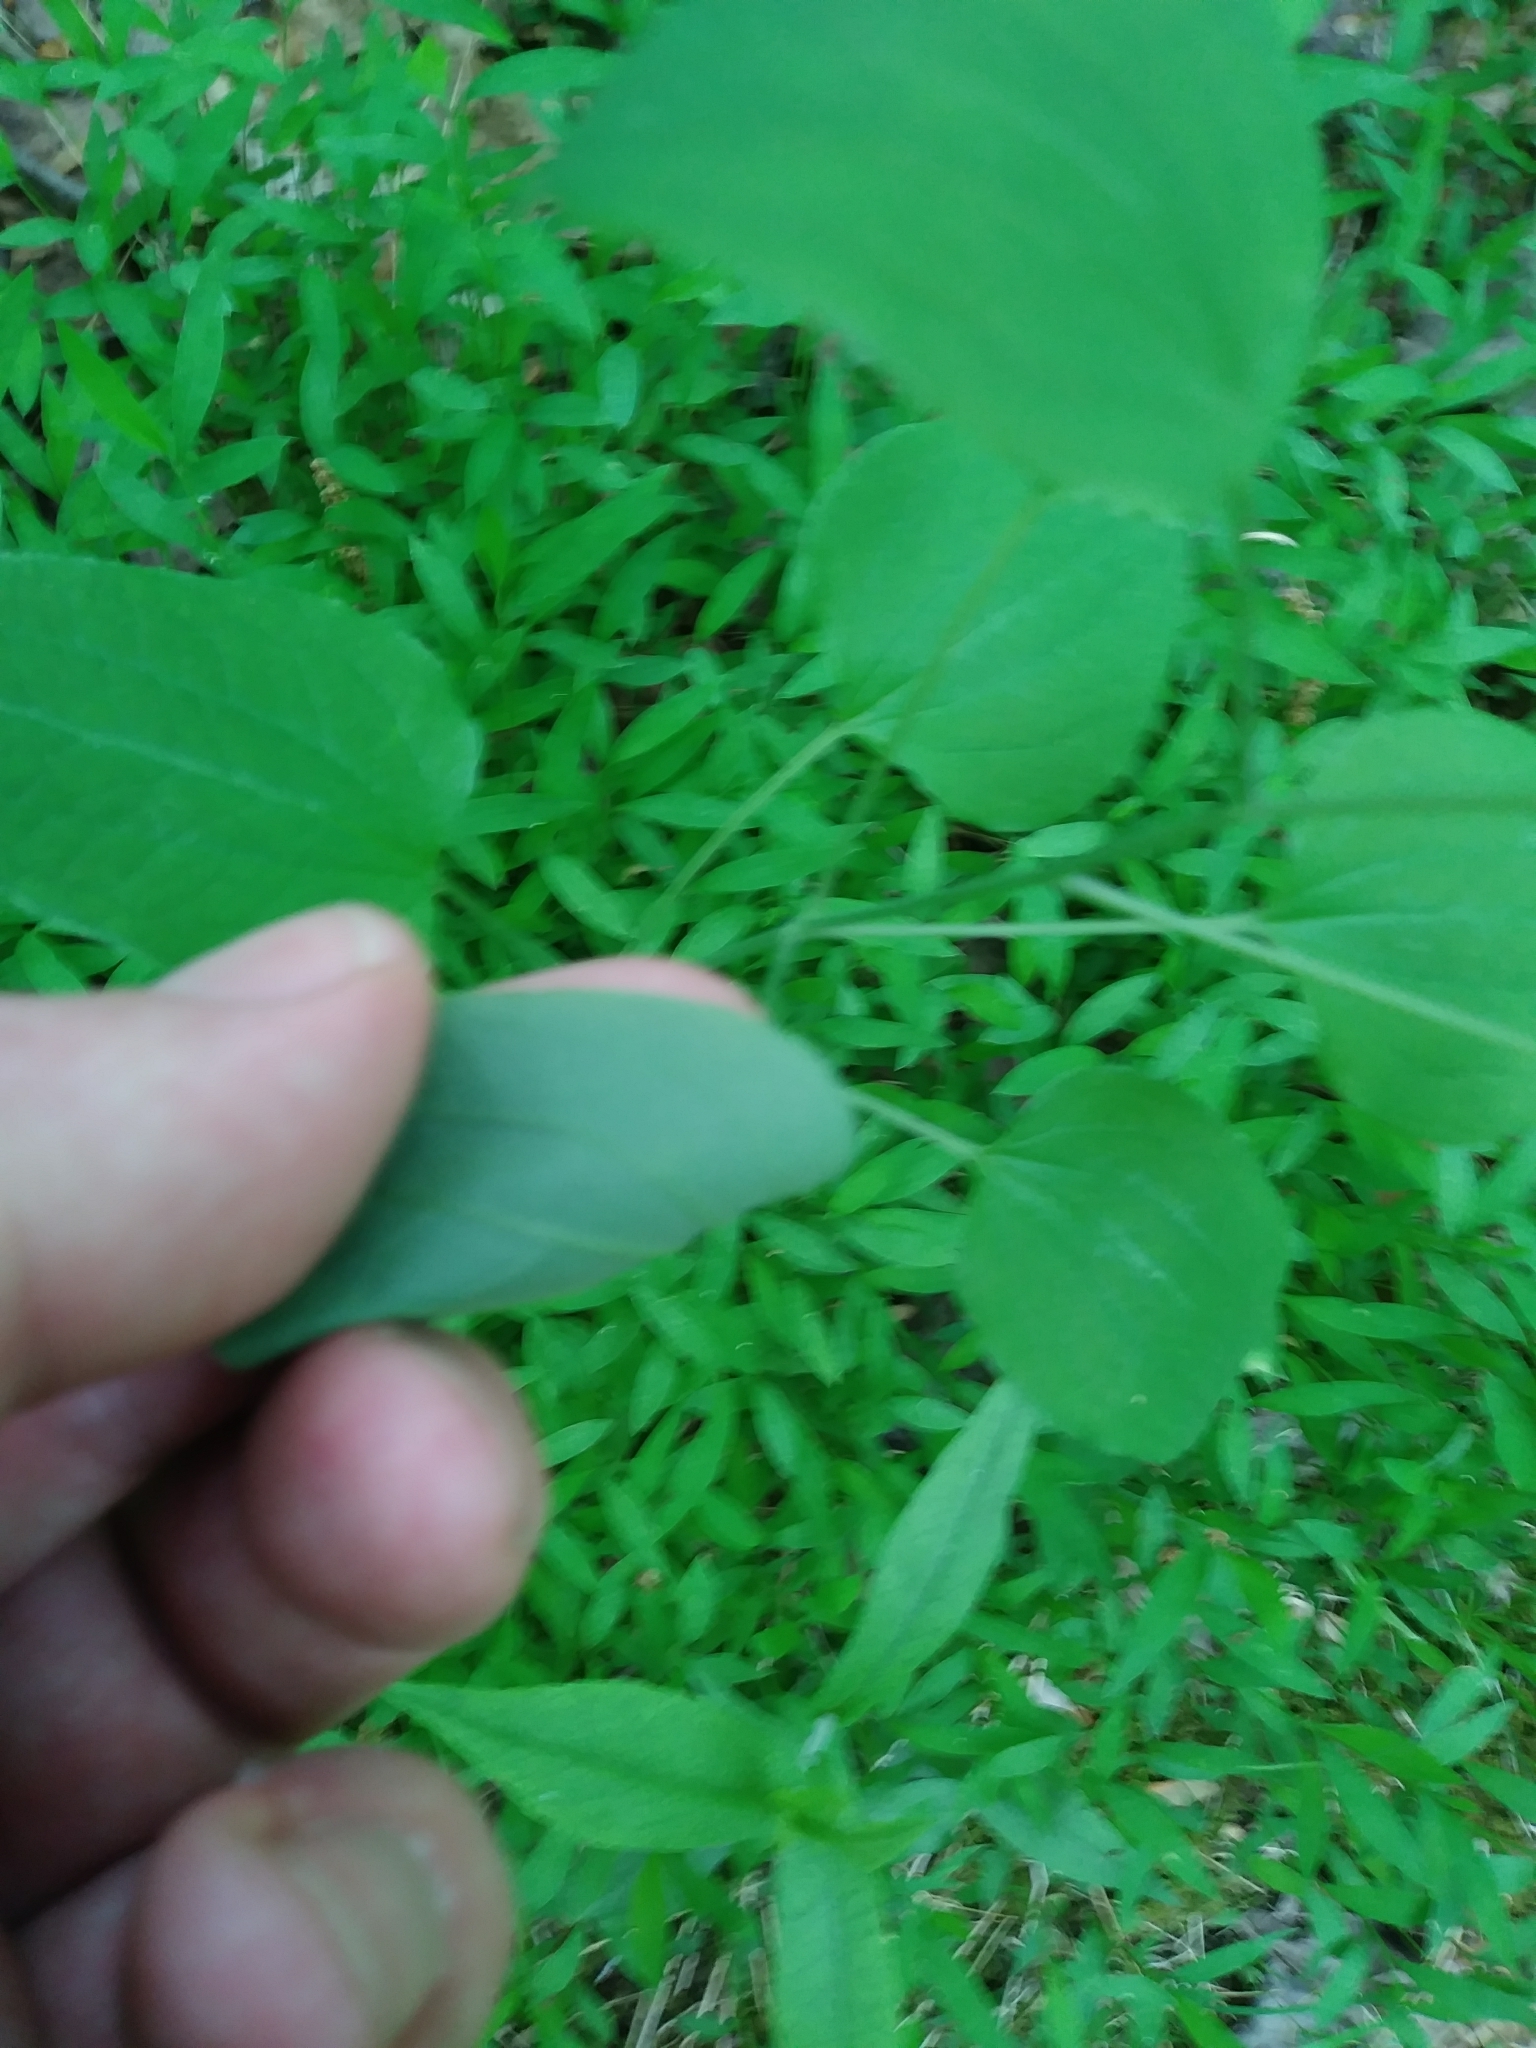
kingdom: Plantae
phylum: Tracheophyta
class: Liliopsida
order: Liliales
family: Smilacaceae
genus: Smilax
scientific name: Smilax herbacea
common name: Jacob's-ladder
